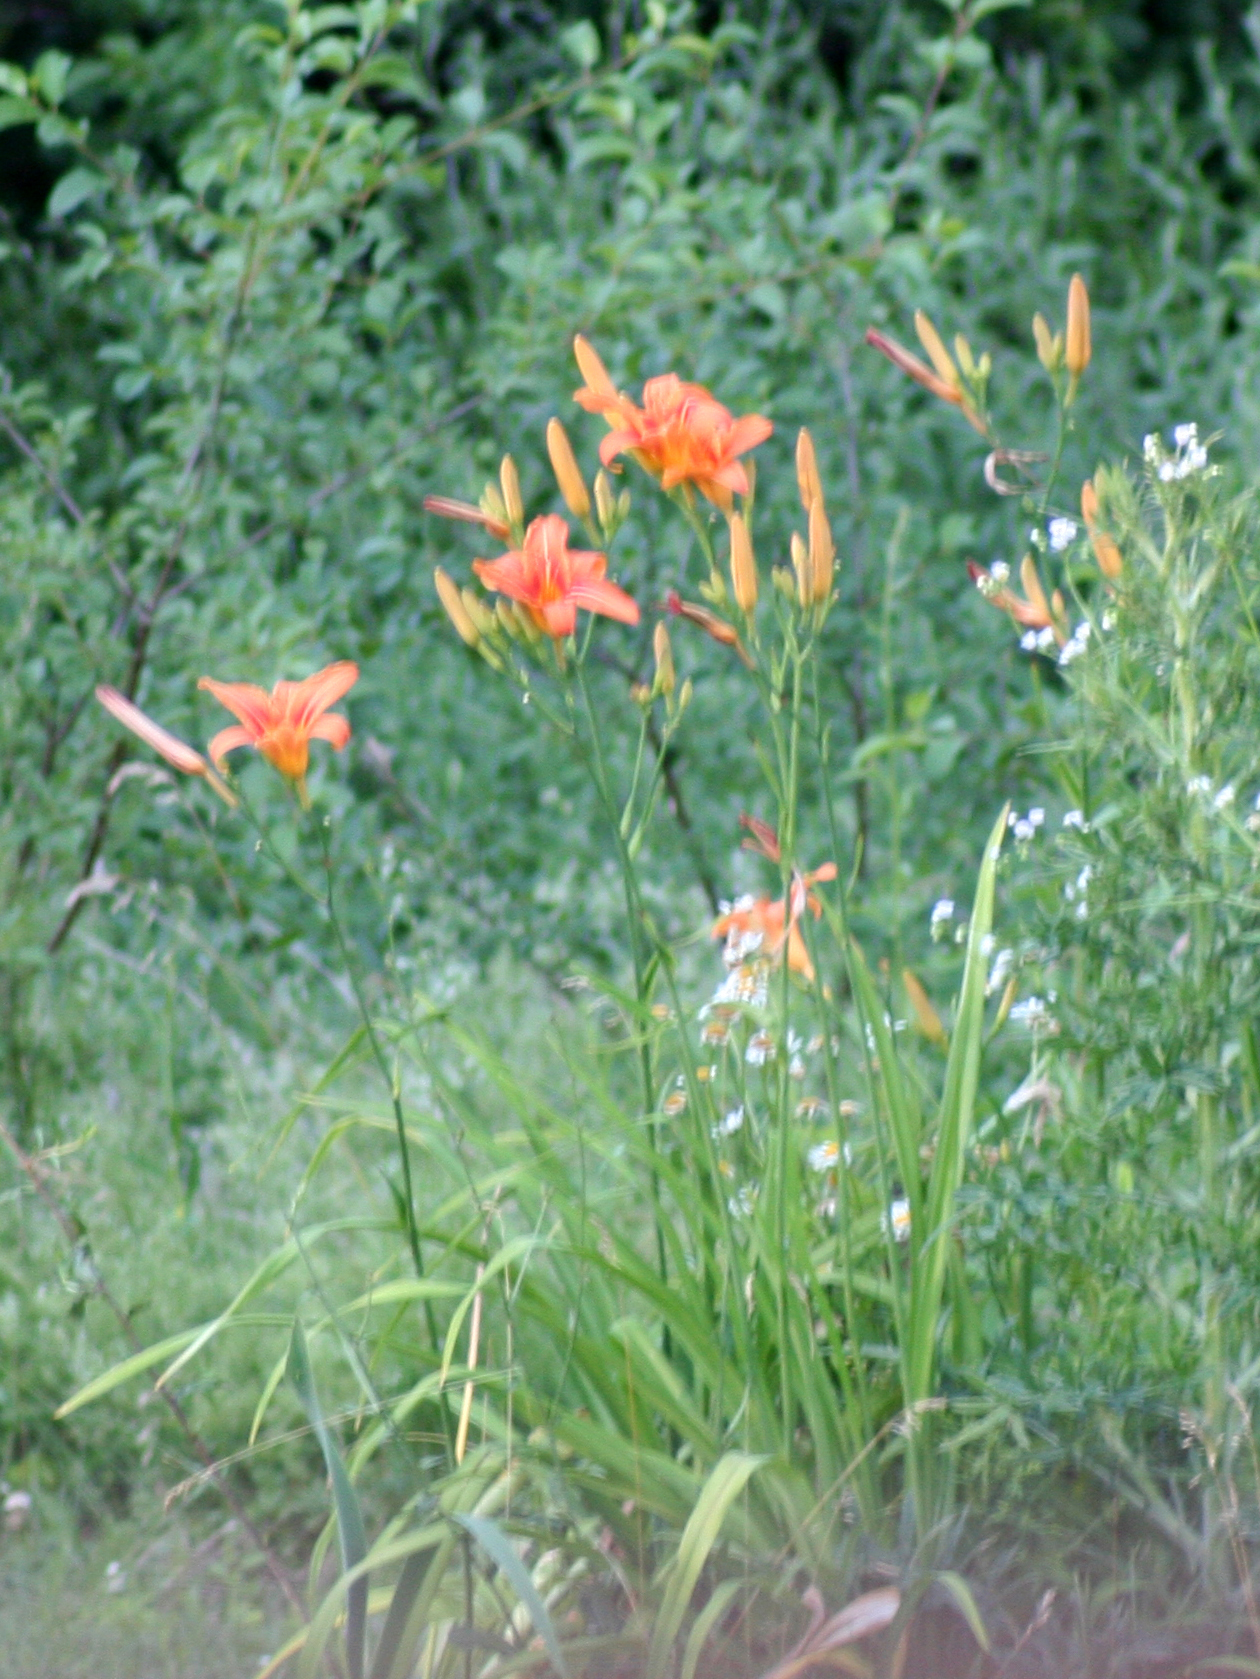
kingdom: Plantae
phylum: Tracheophyta
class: Liliopsida
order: Asparagales
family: Asphodelaceae
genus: Hemerocallis
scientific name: Hemerocallis fulva
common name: Orange day-lily
